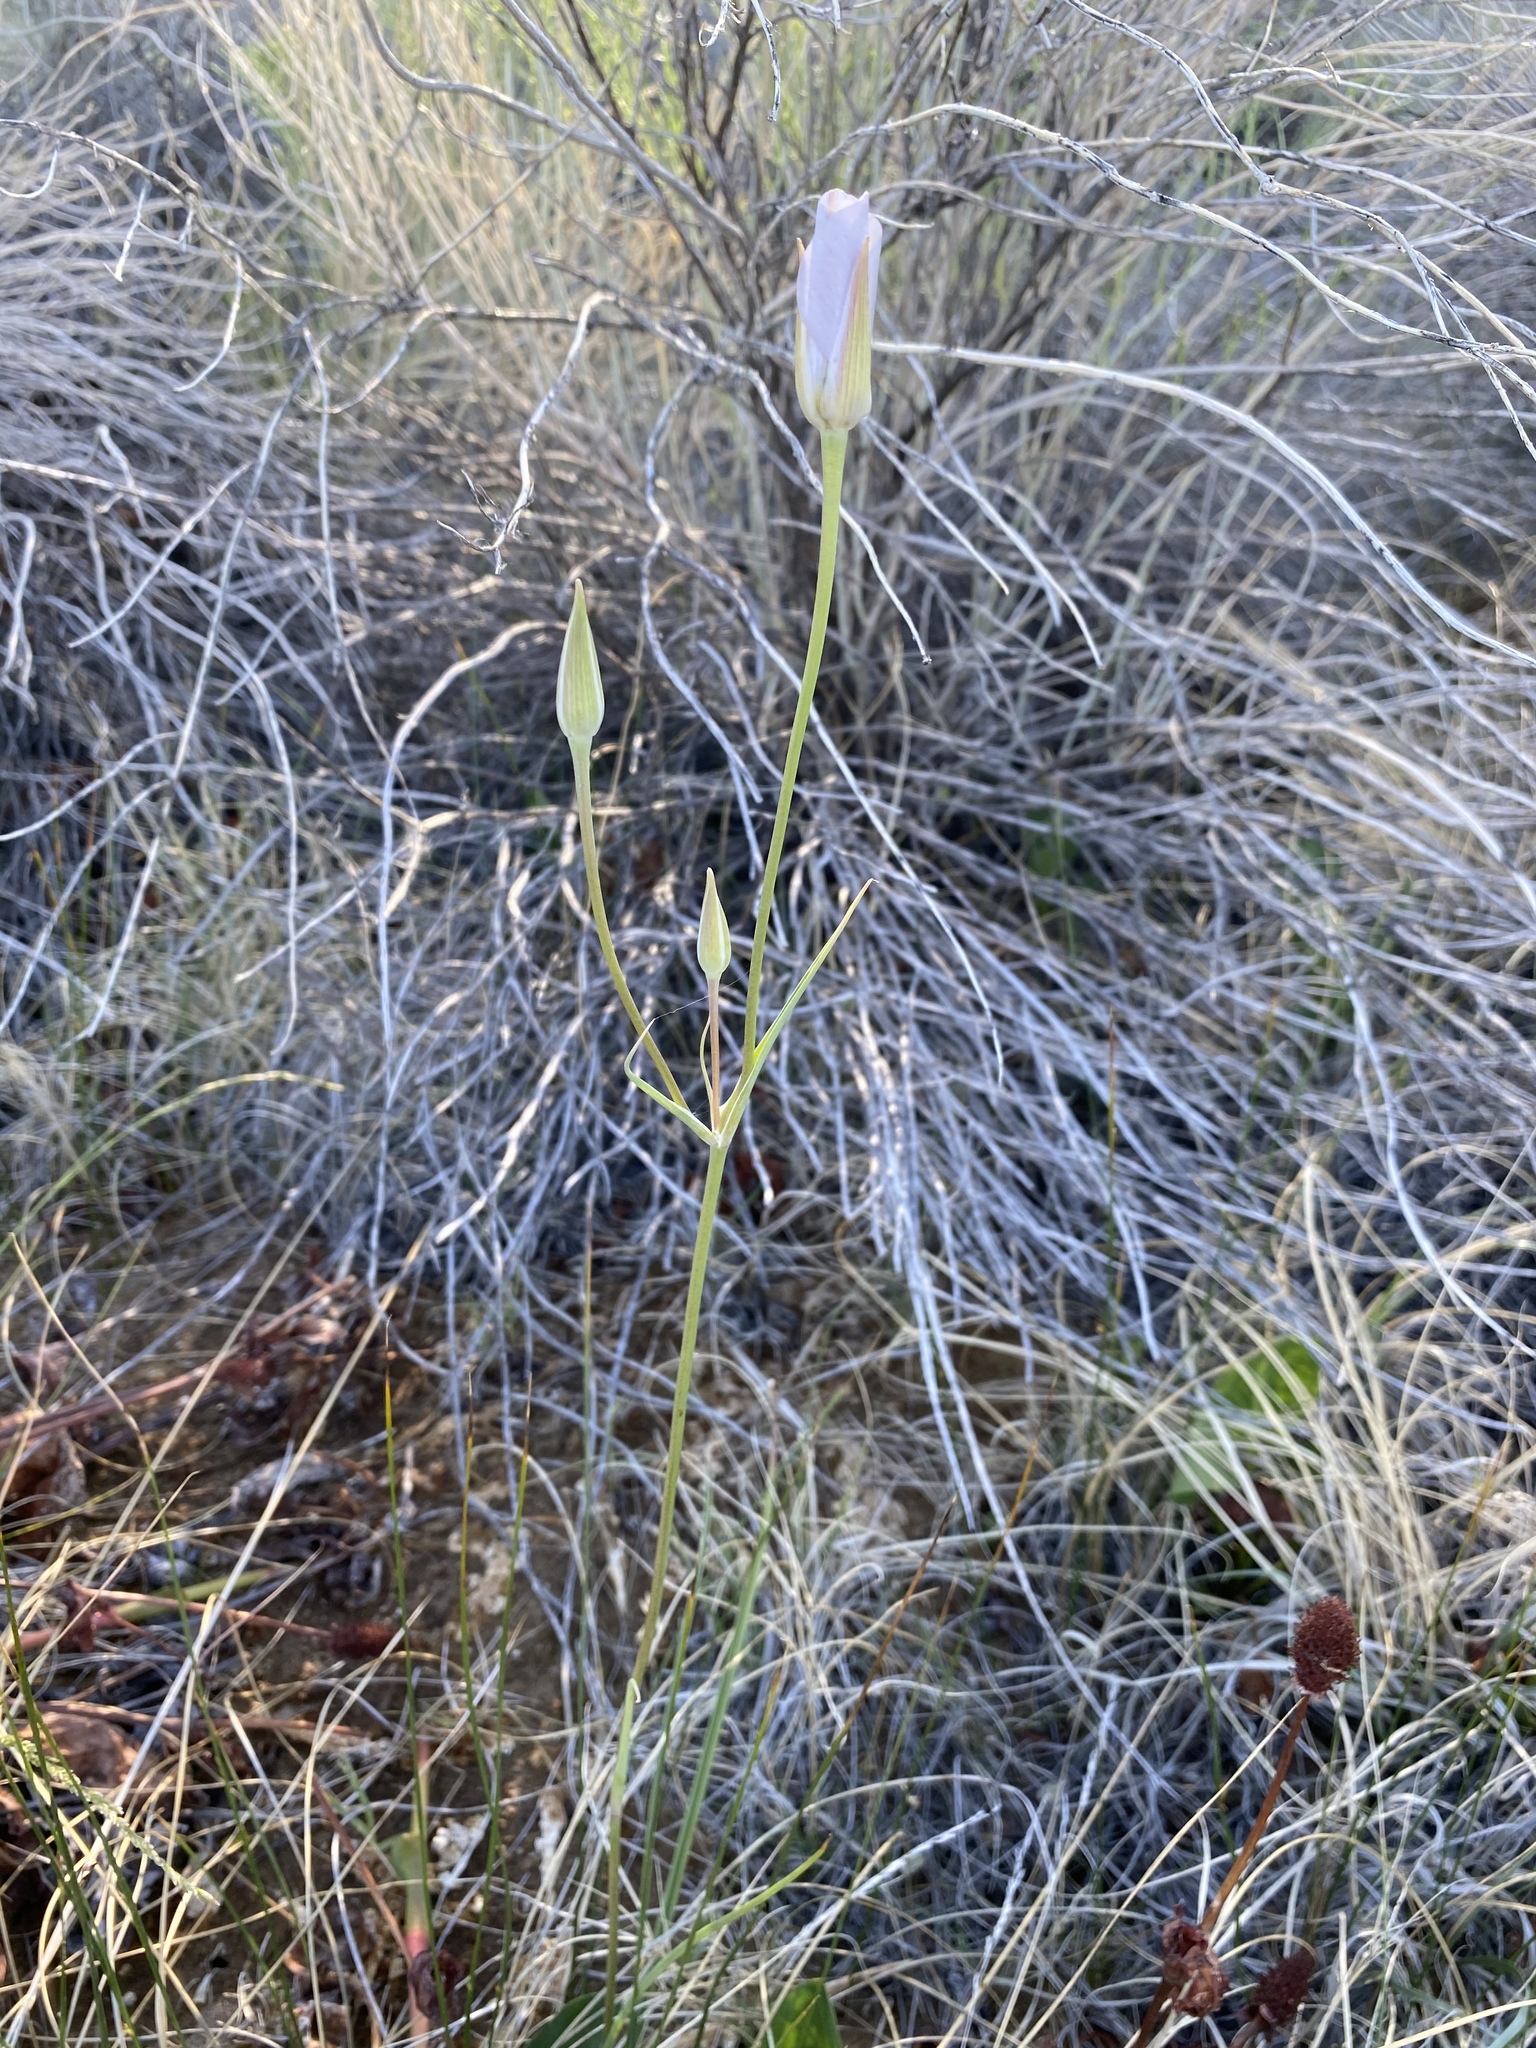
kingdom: Plantae
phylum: Tracheophyta
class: Liliopsida
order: Liliales
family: Liliaceae
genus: Calochortus
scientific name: Calochortus excavatus
